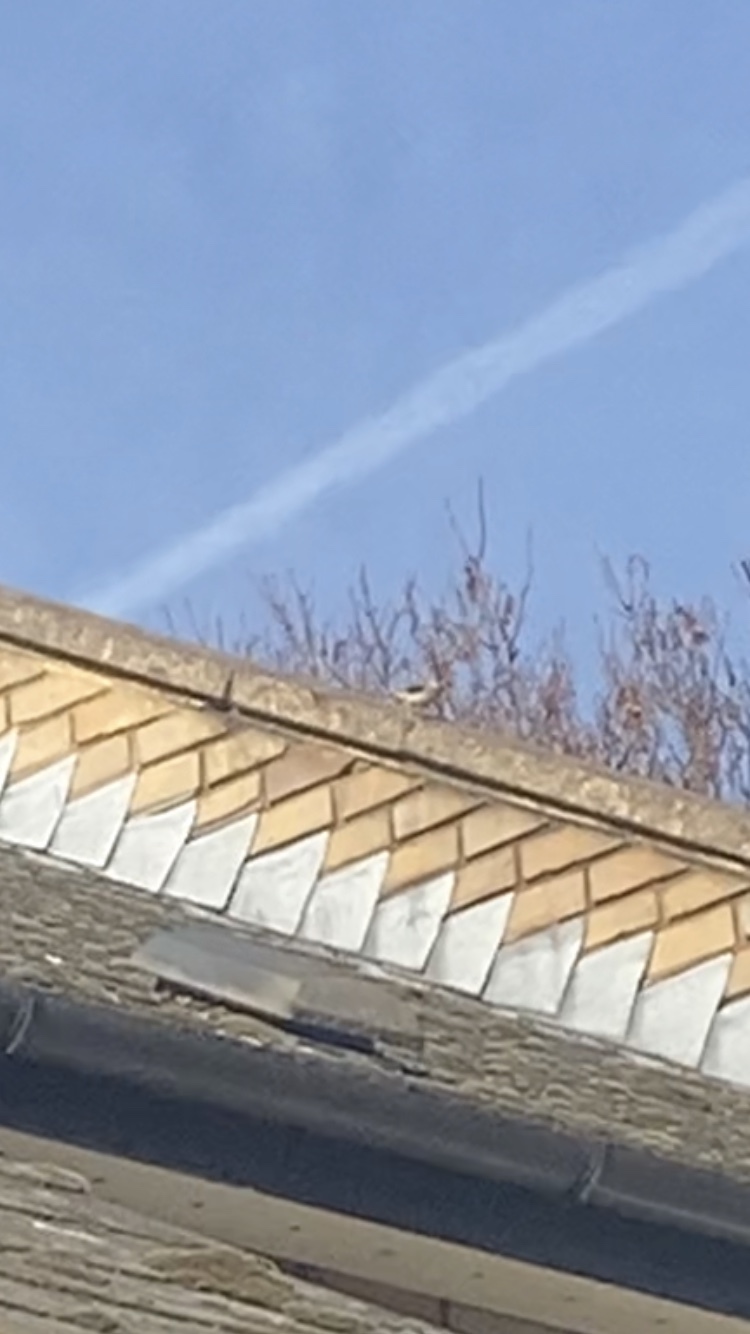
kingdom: Animalia
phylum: Chordata
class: Aves
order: Passeriformes
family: Motacillidae
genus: Motacilla
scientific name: Motacilla cinerea
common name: Grey wagtail
